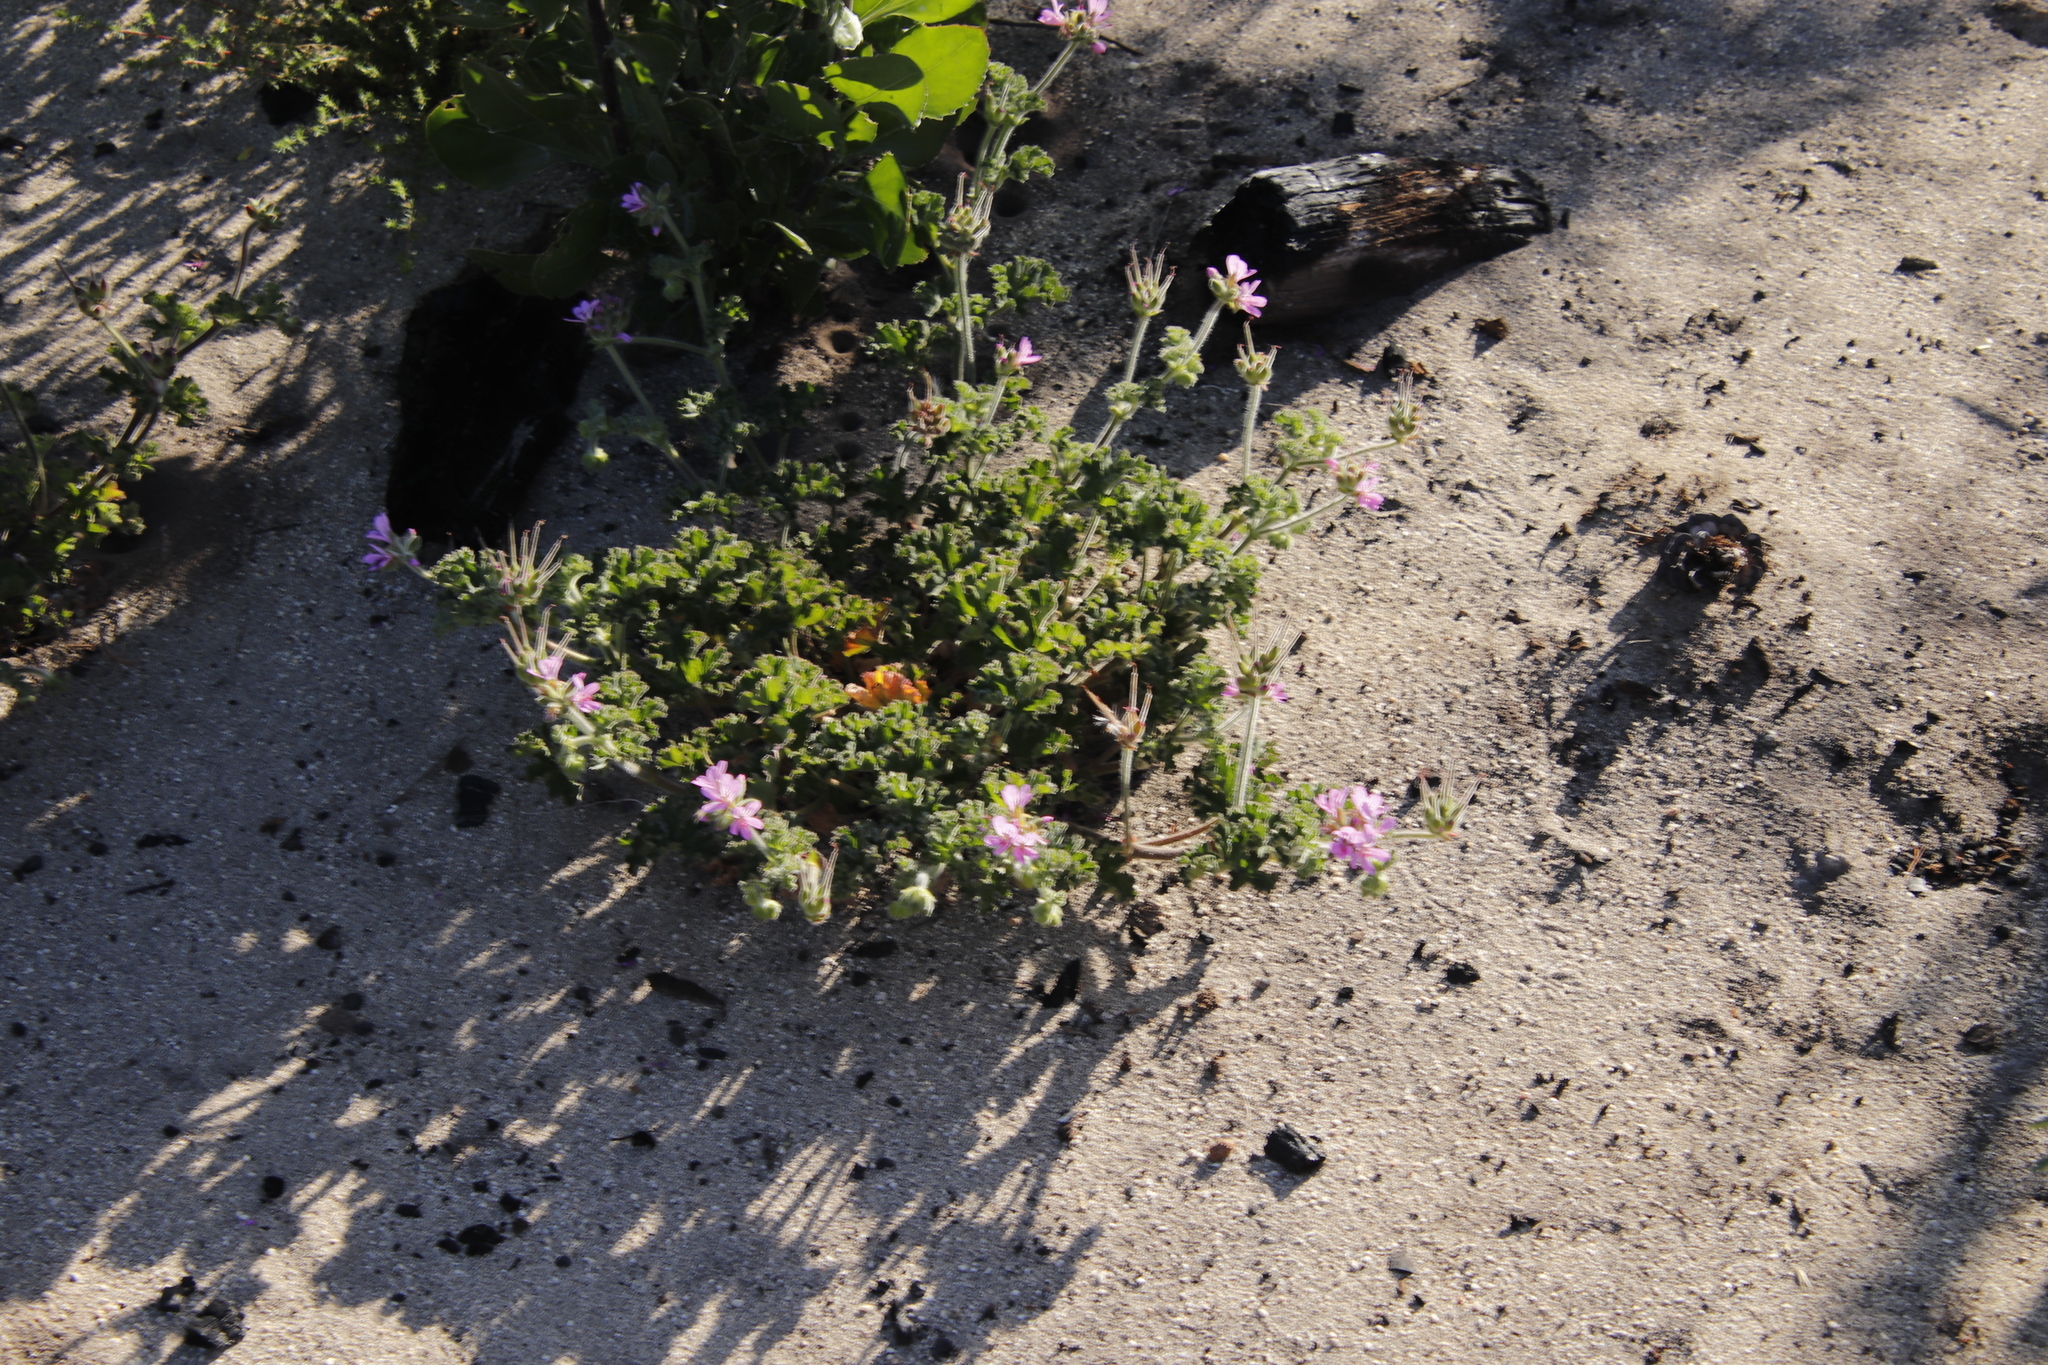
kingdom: Plantae
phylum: Tracheophyta
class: Magnoliopsida
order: Geraniales
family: Geraniaceae
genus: Pelargonium
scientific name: Pelargonium capitatum
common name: Rose scented geranium
